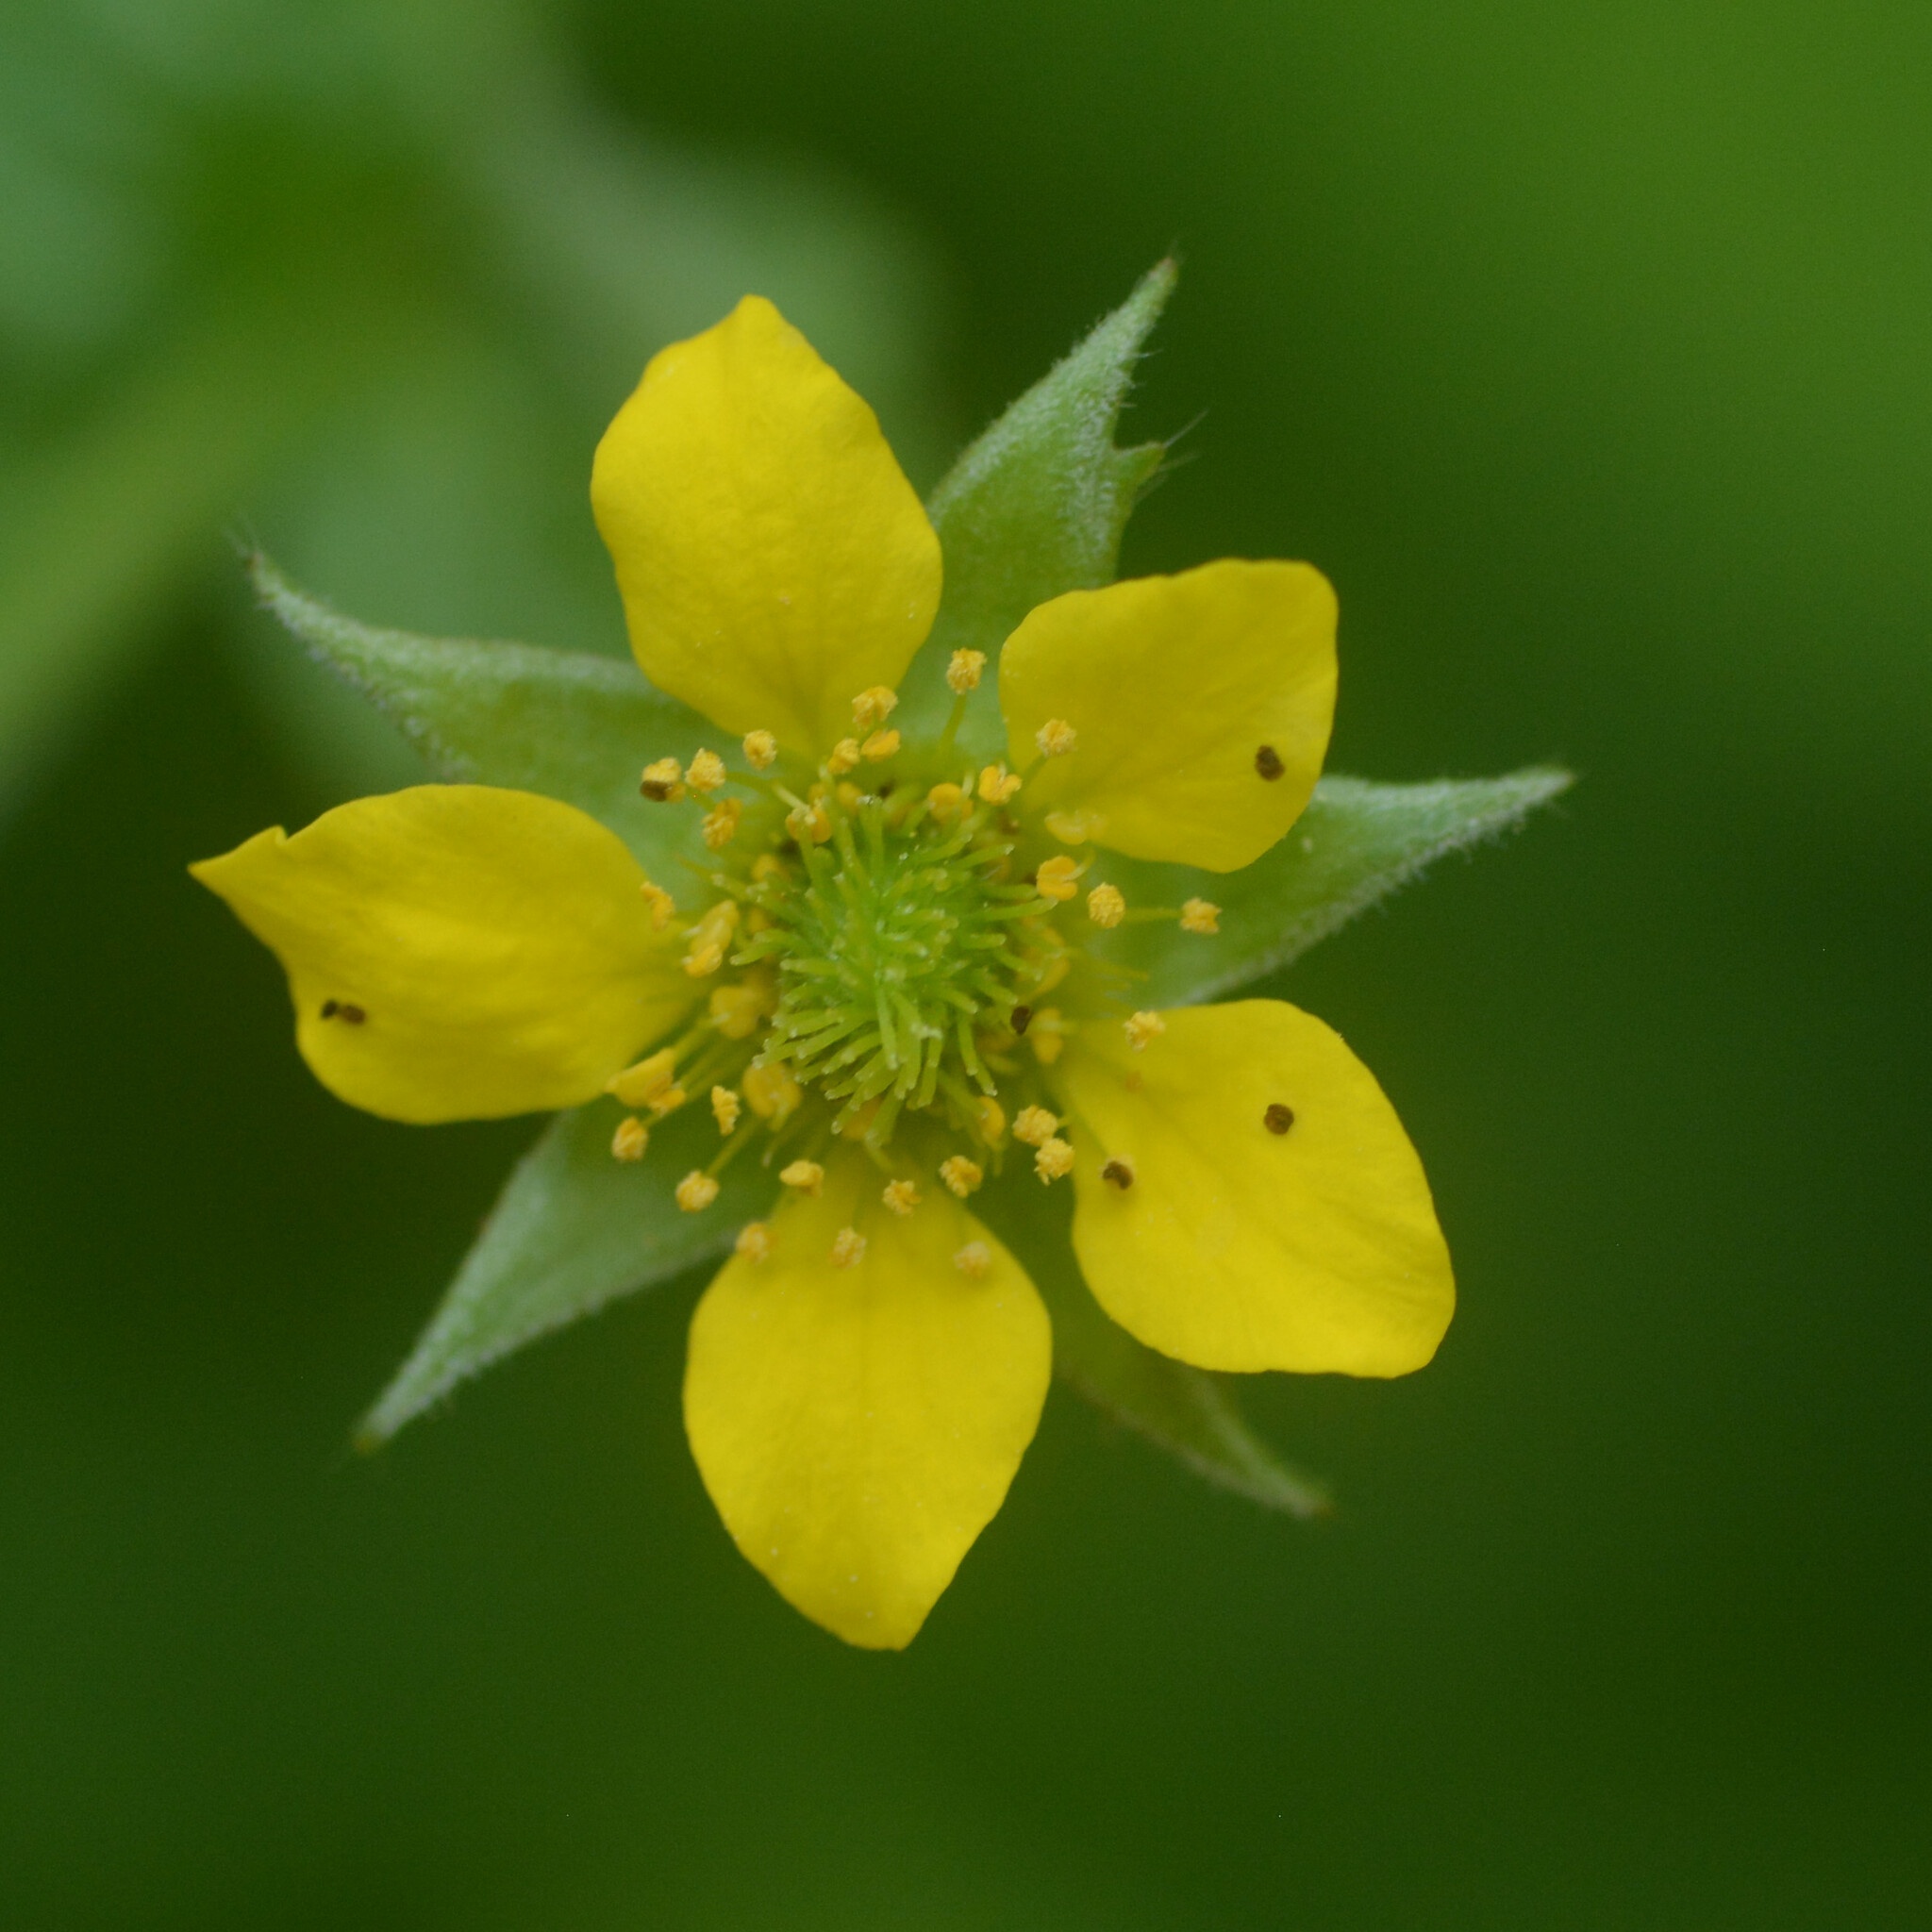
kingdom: Plantae
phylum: Tracheophyta
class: Magnoliopsida
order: Rosales
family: Rosaceae
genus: Geum
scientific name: Geum urbanum
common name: Wood avens
